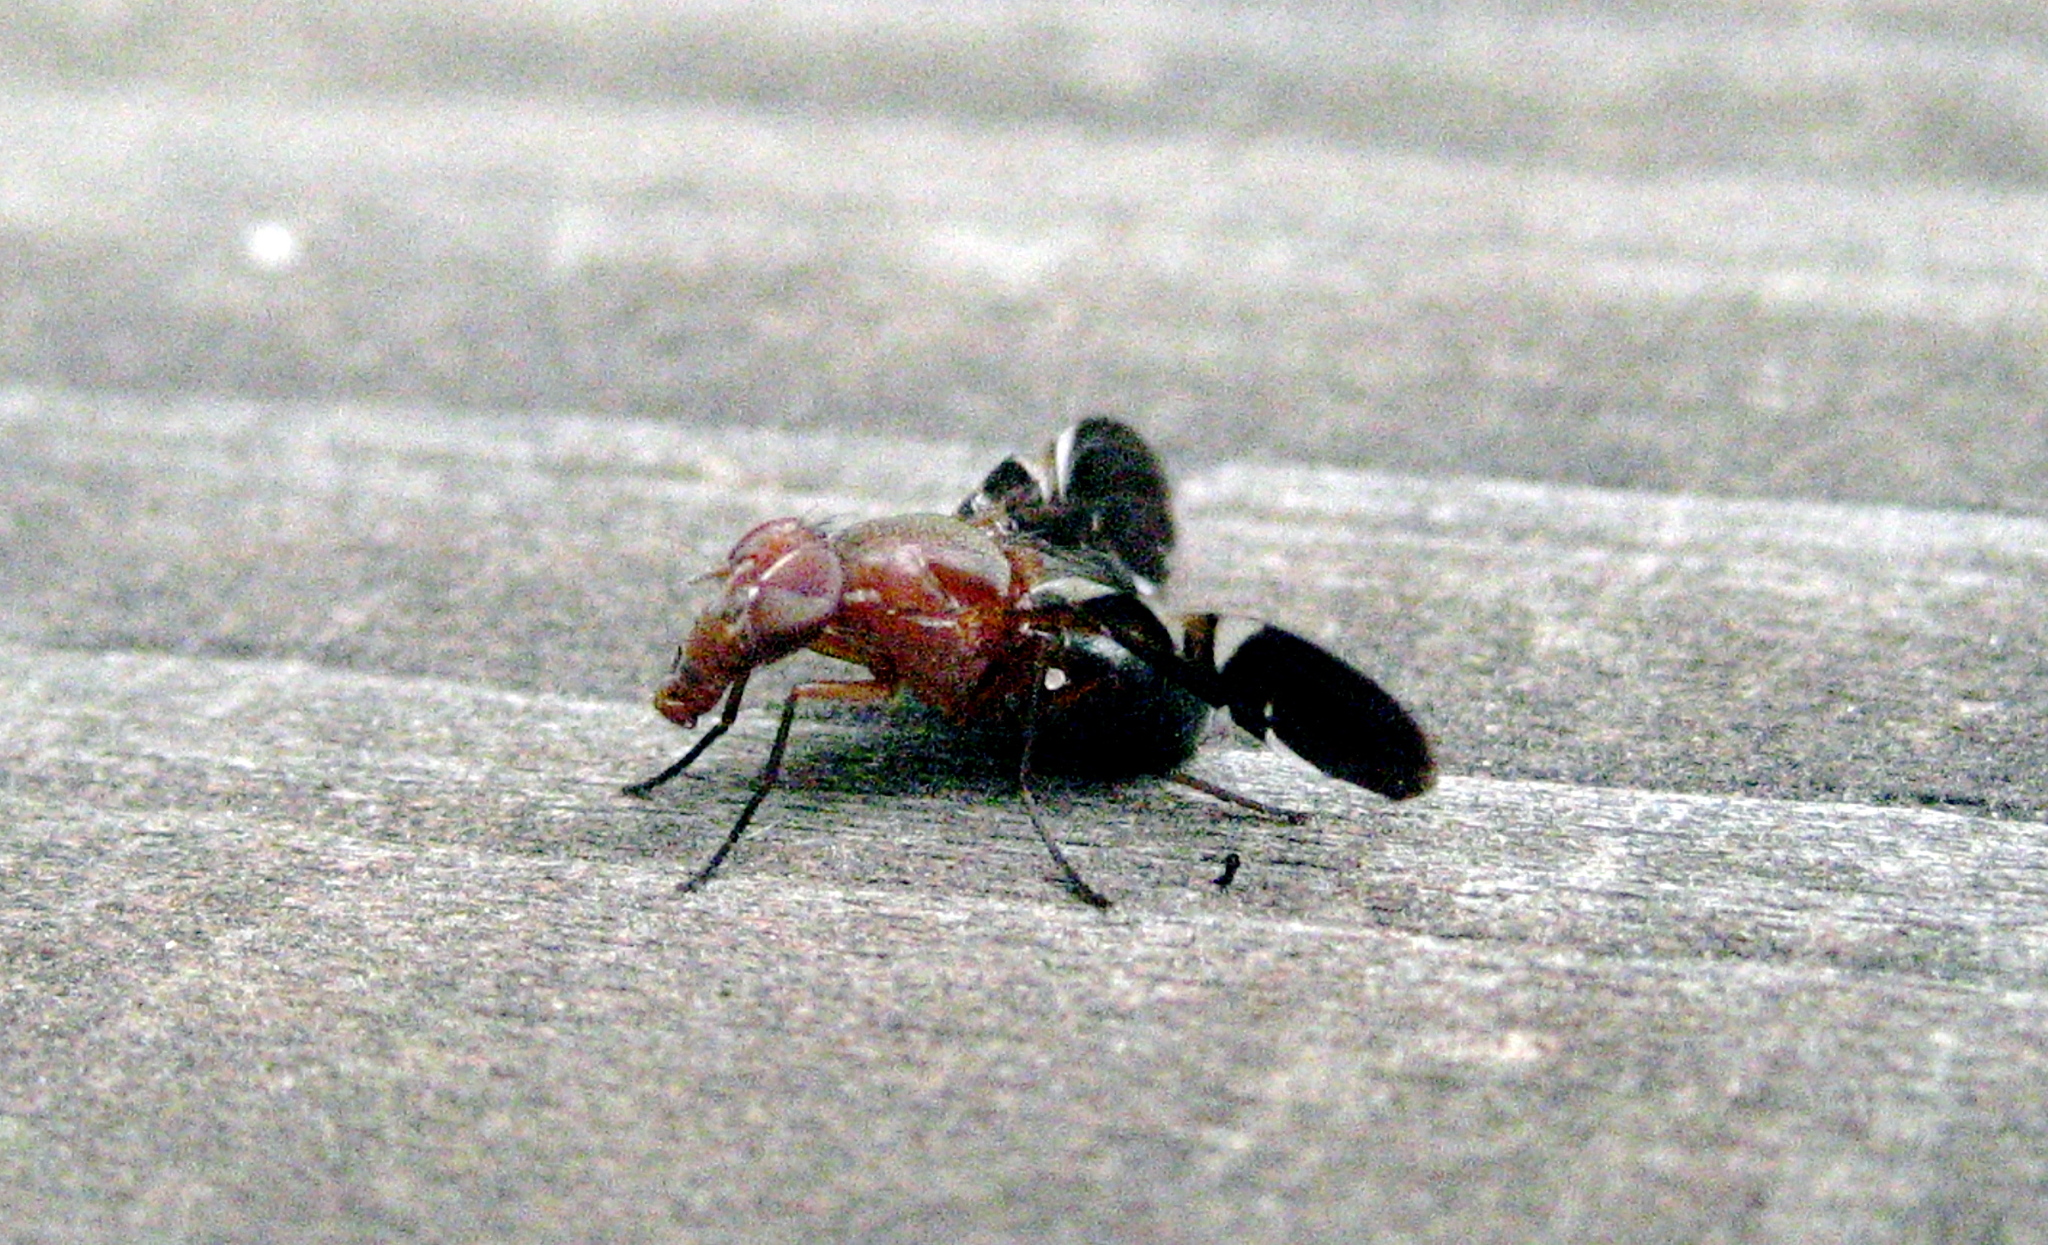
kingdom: Animalia
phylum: Arthropoda
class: Insecta
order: Diptera
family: Ulidiidae
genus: Delphinia
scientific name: Delphinia picta
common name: Common picture-winged fly
